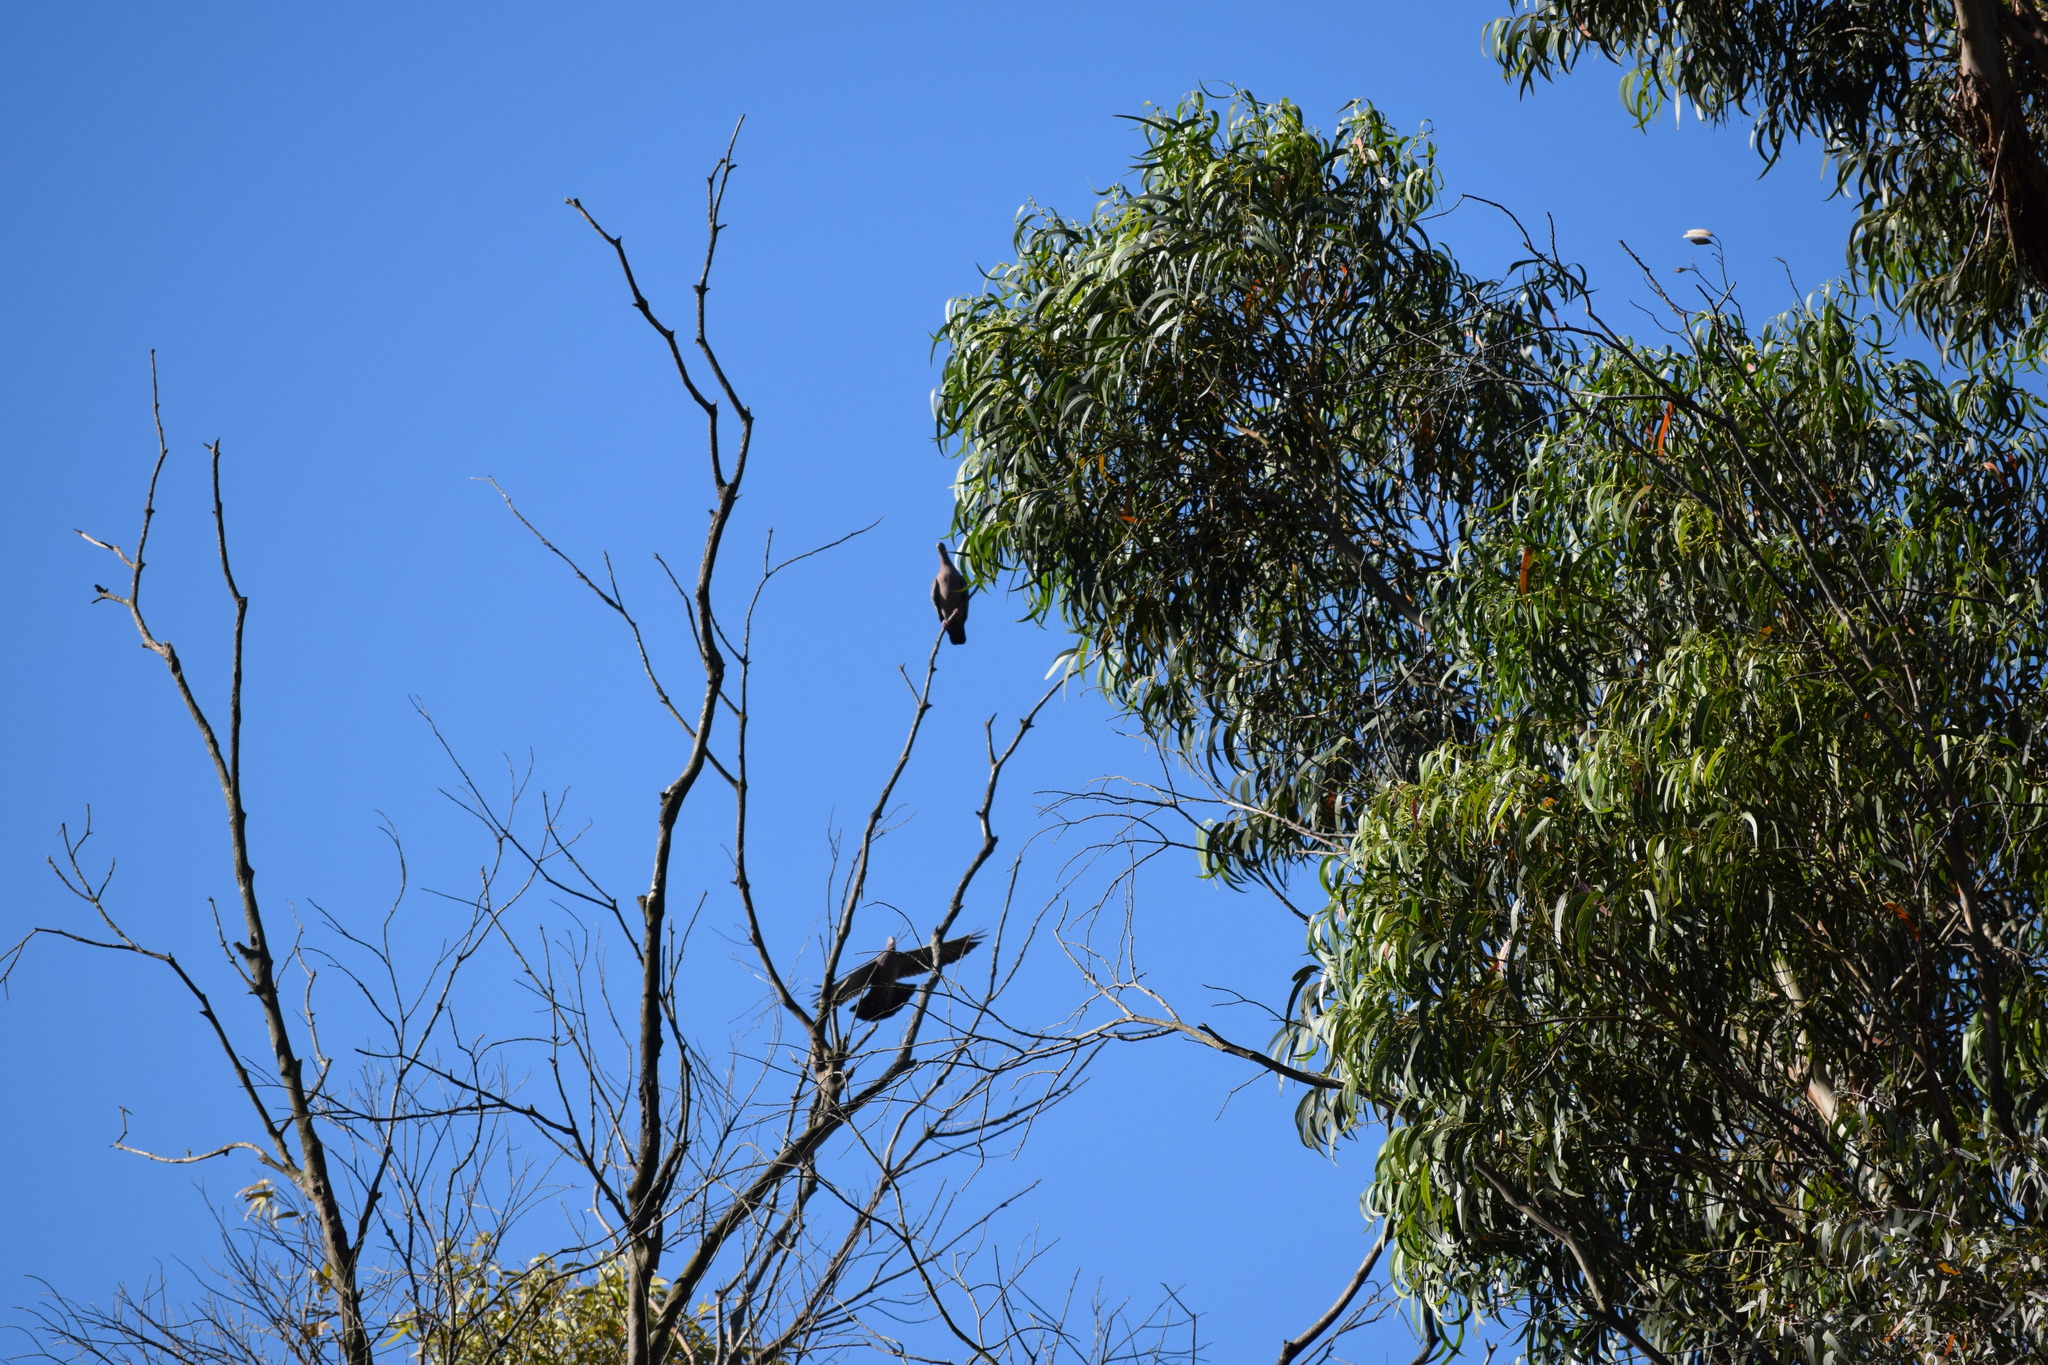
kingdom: Animalia
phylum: Chordata
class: Aves
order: Columbiformes
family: Columbidae
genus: Patagioenas
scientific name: Patagioenas picazuro
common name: Picazuro pigeon
